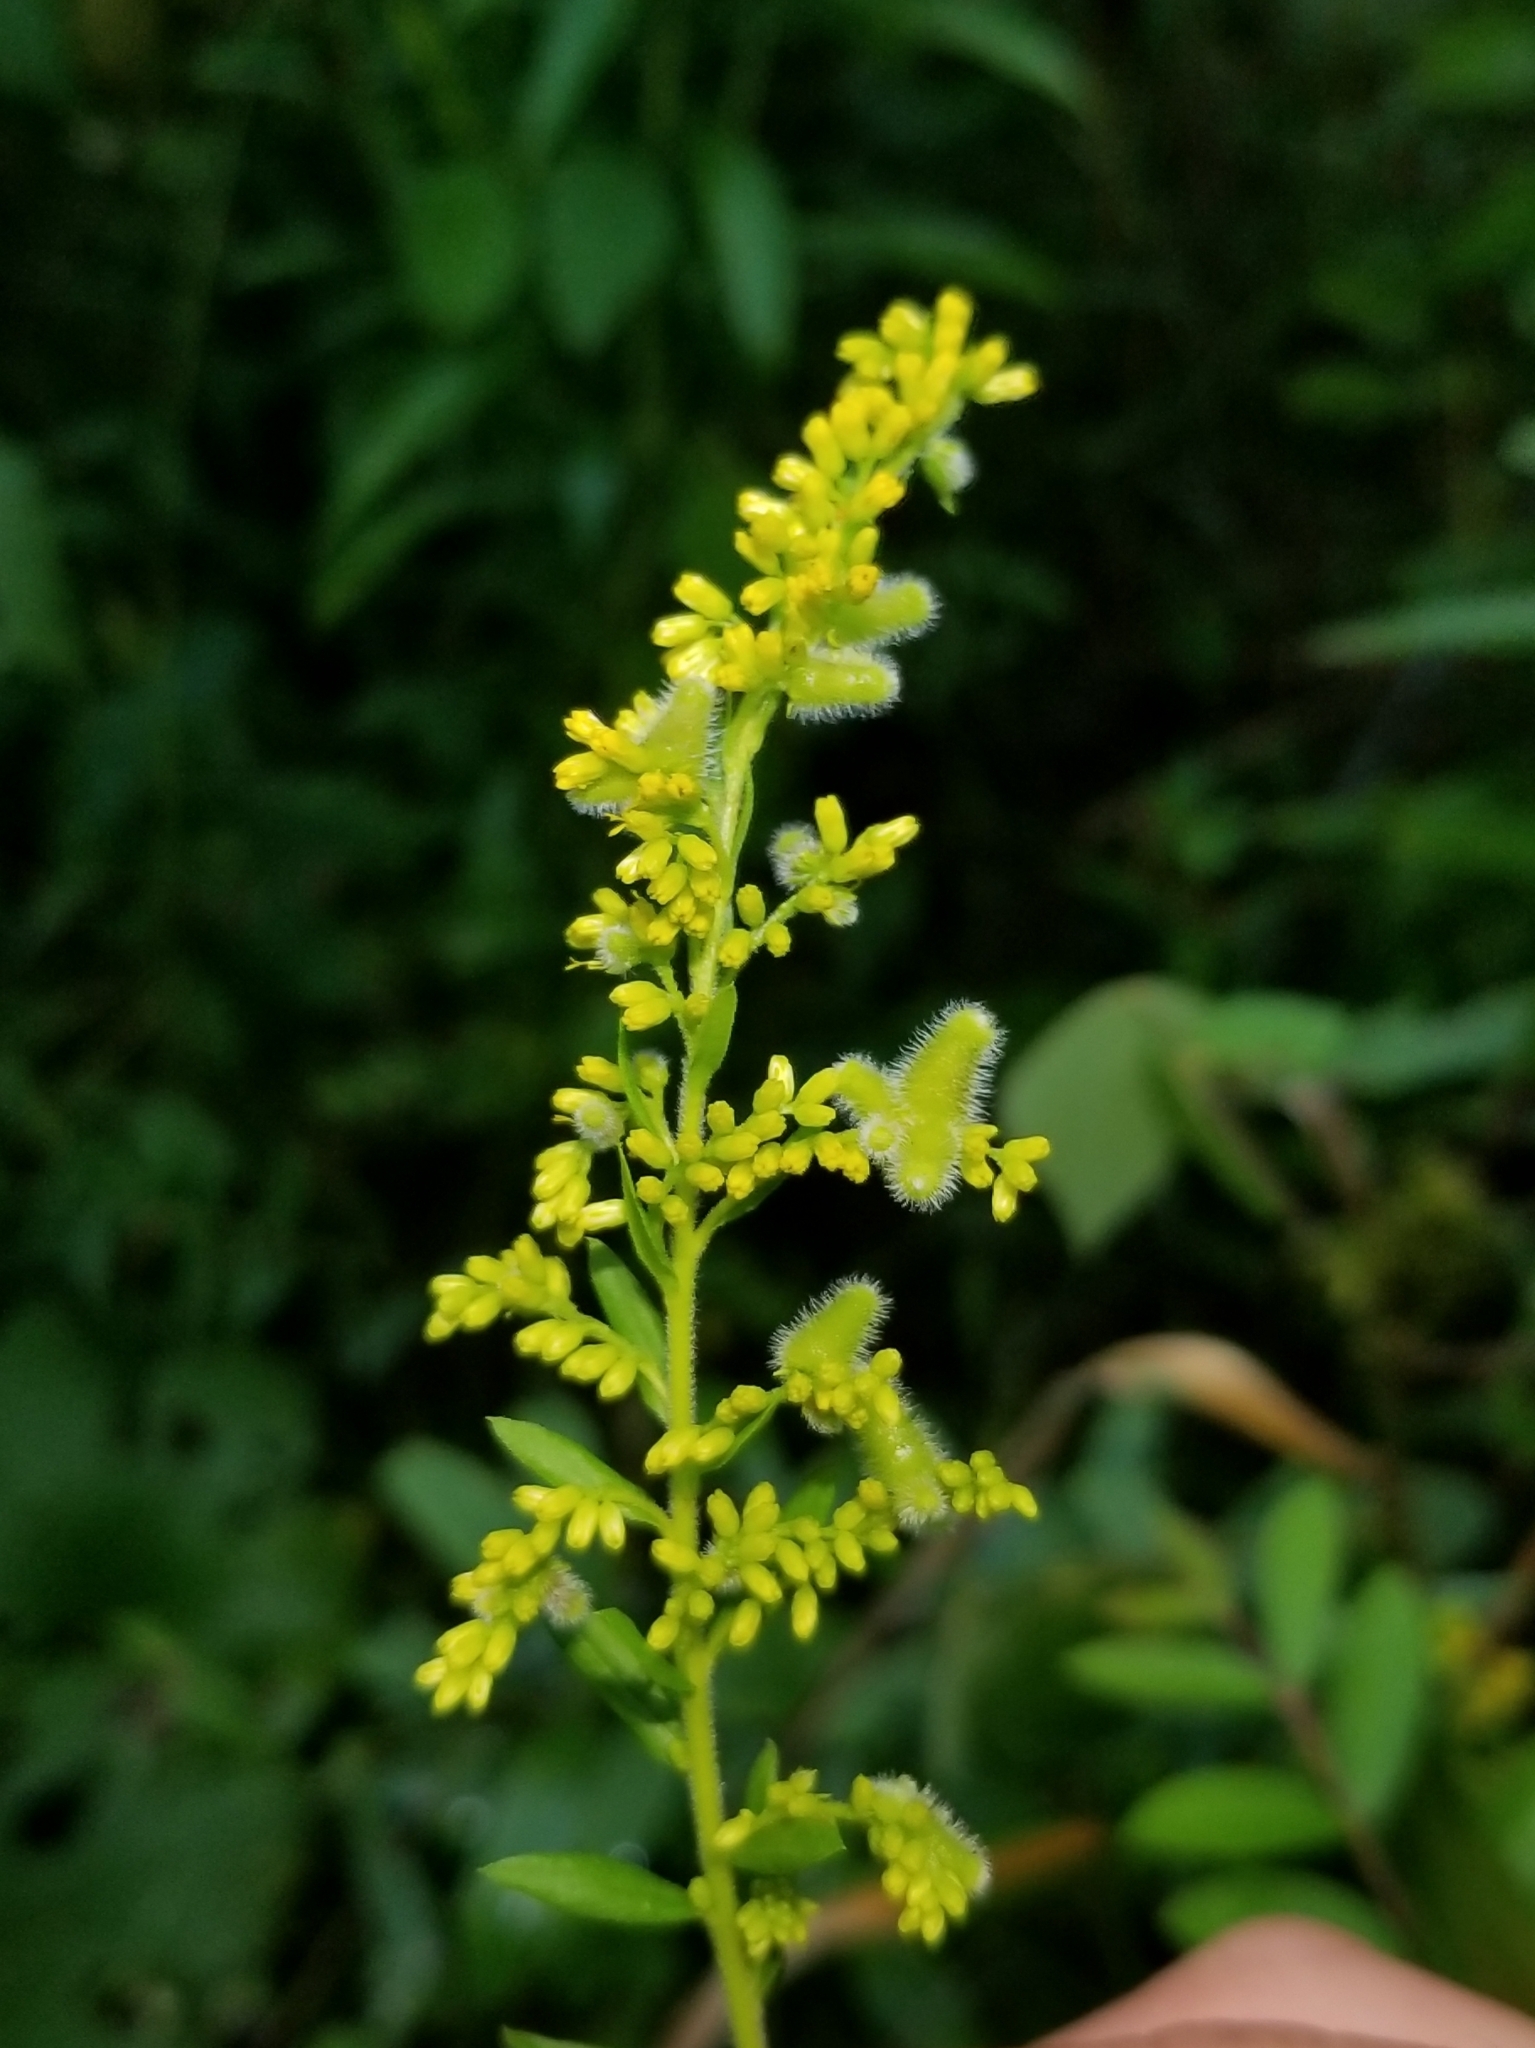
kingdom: Animalia
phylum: Arthropoda
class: Insecta
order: Diptera
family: Cecidomyiidae
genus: Rhopalomyia
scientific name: Rhopalomyia anthophila
